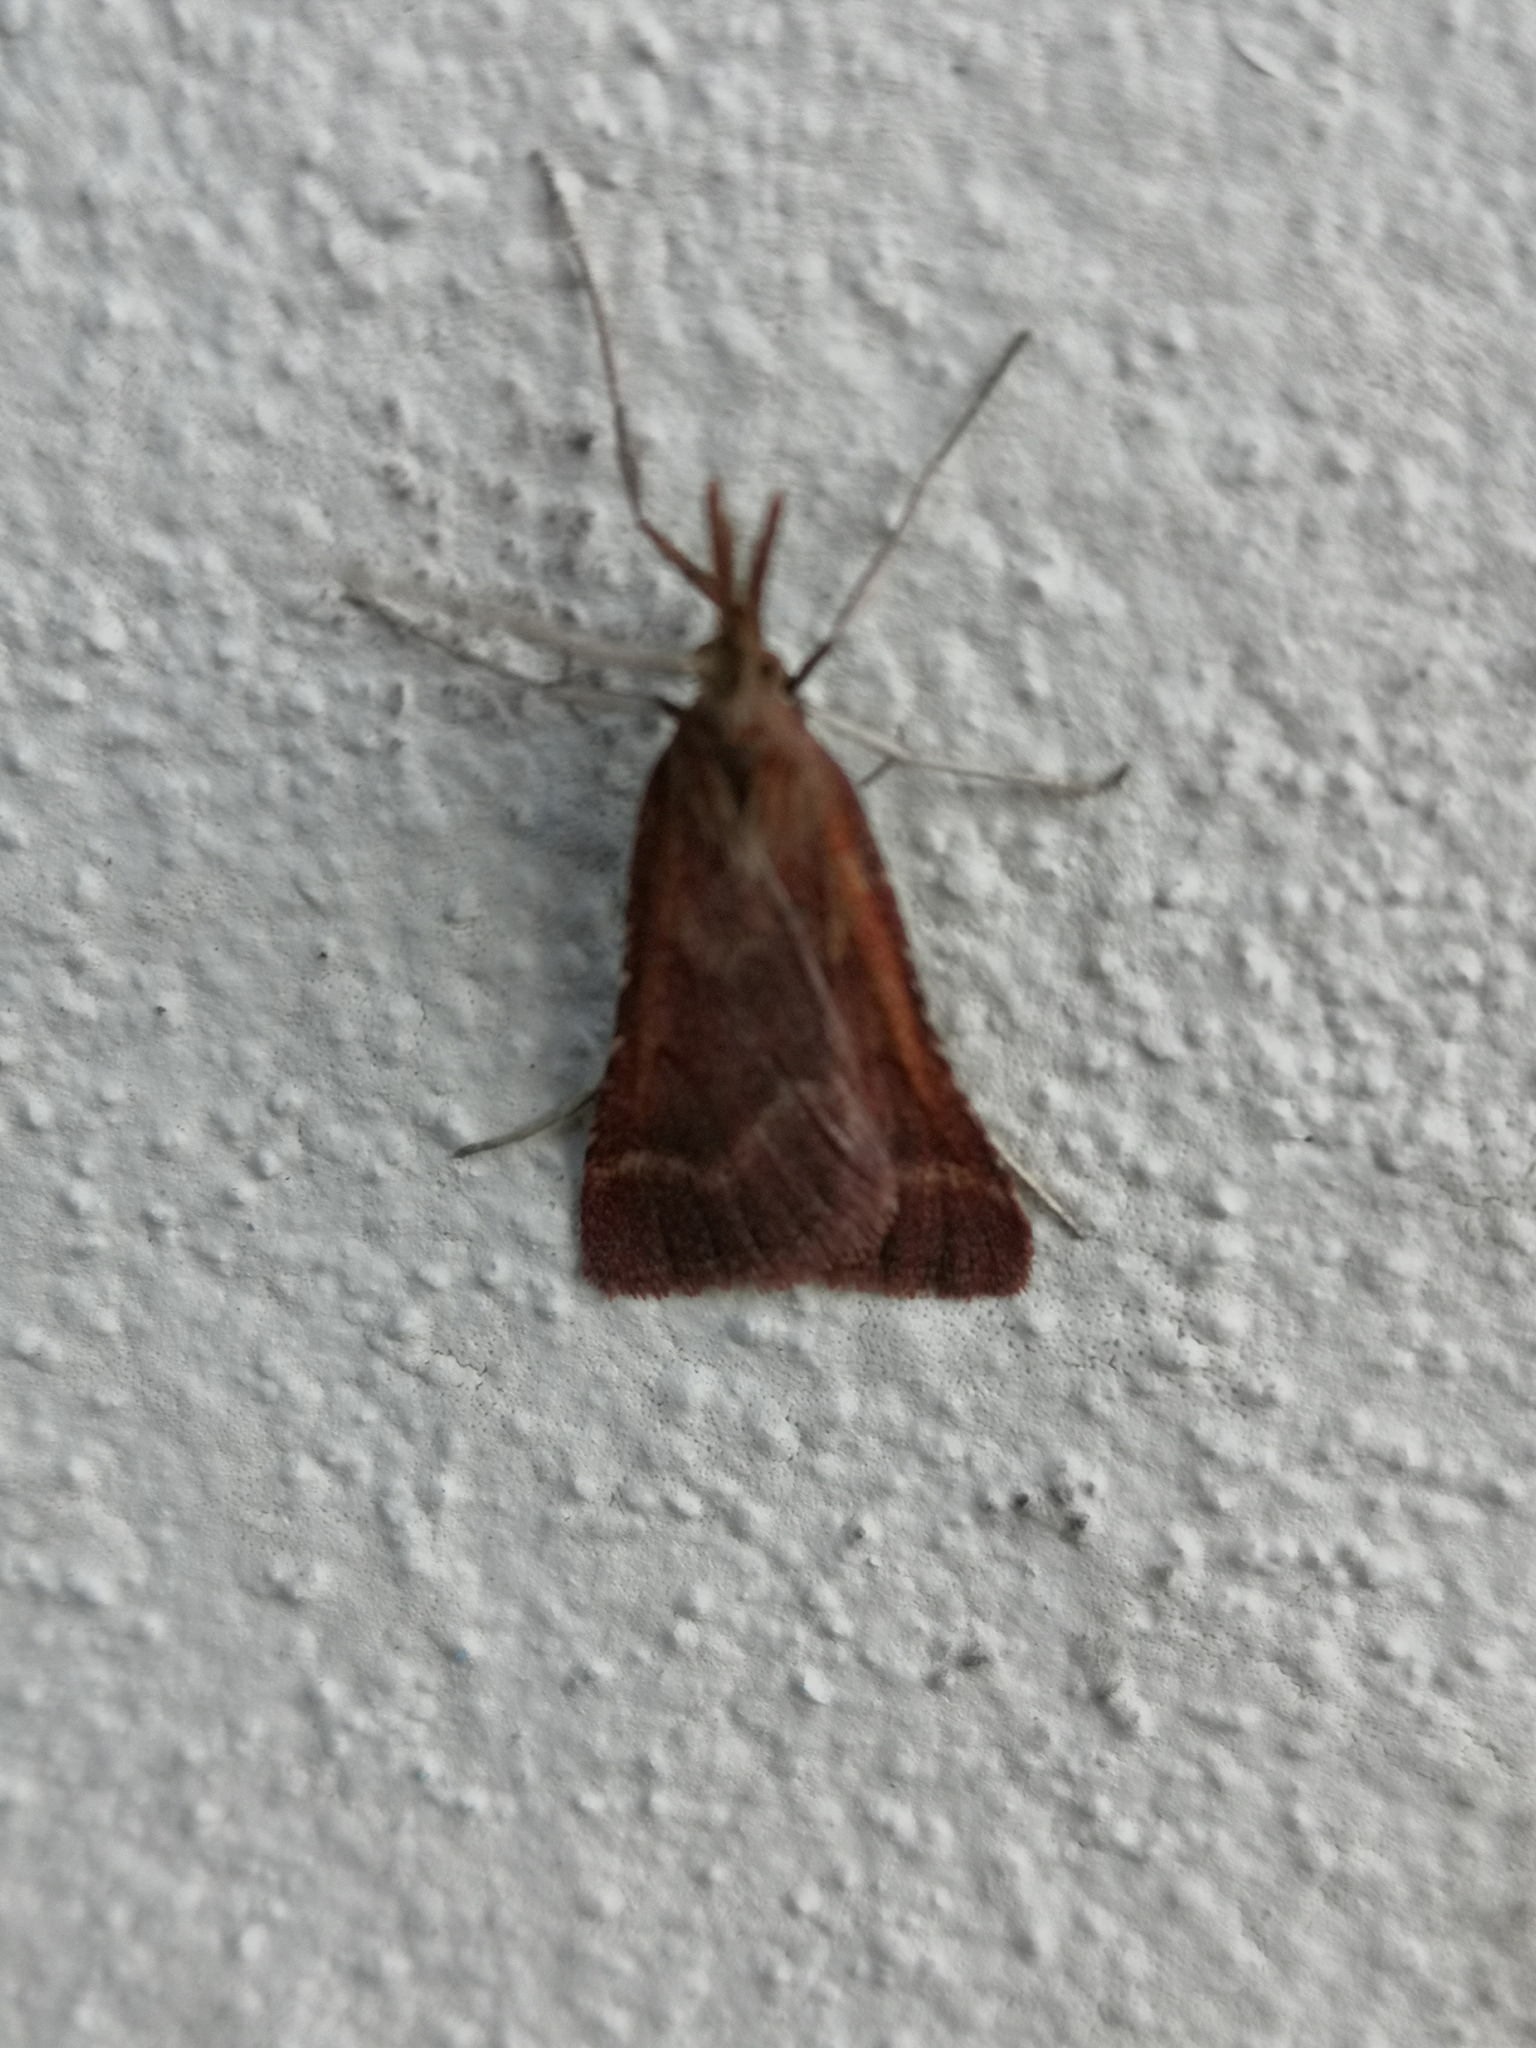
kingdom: Animalia
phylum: Arthropoda
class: Insecta
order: Lepidoptera
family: Pyralidae
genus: Synaphe
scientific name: Synaphe punctalis
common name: Long-legged tabby
